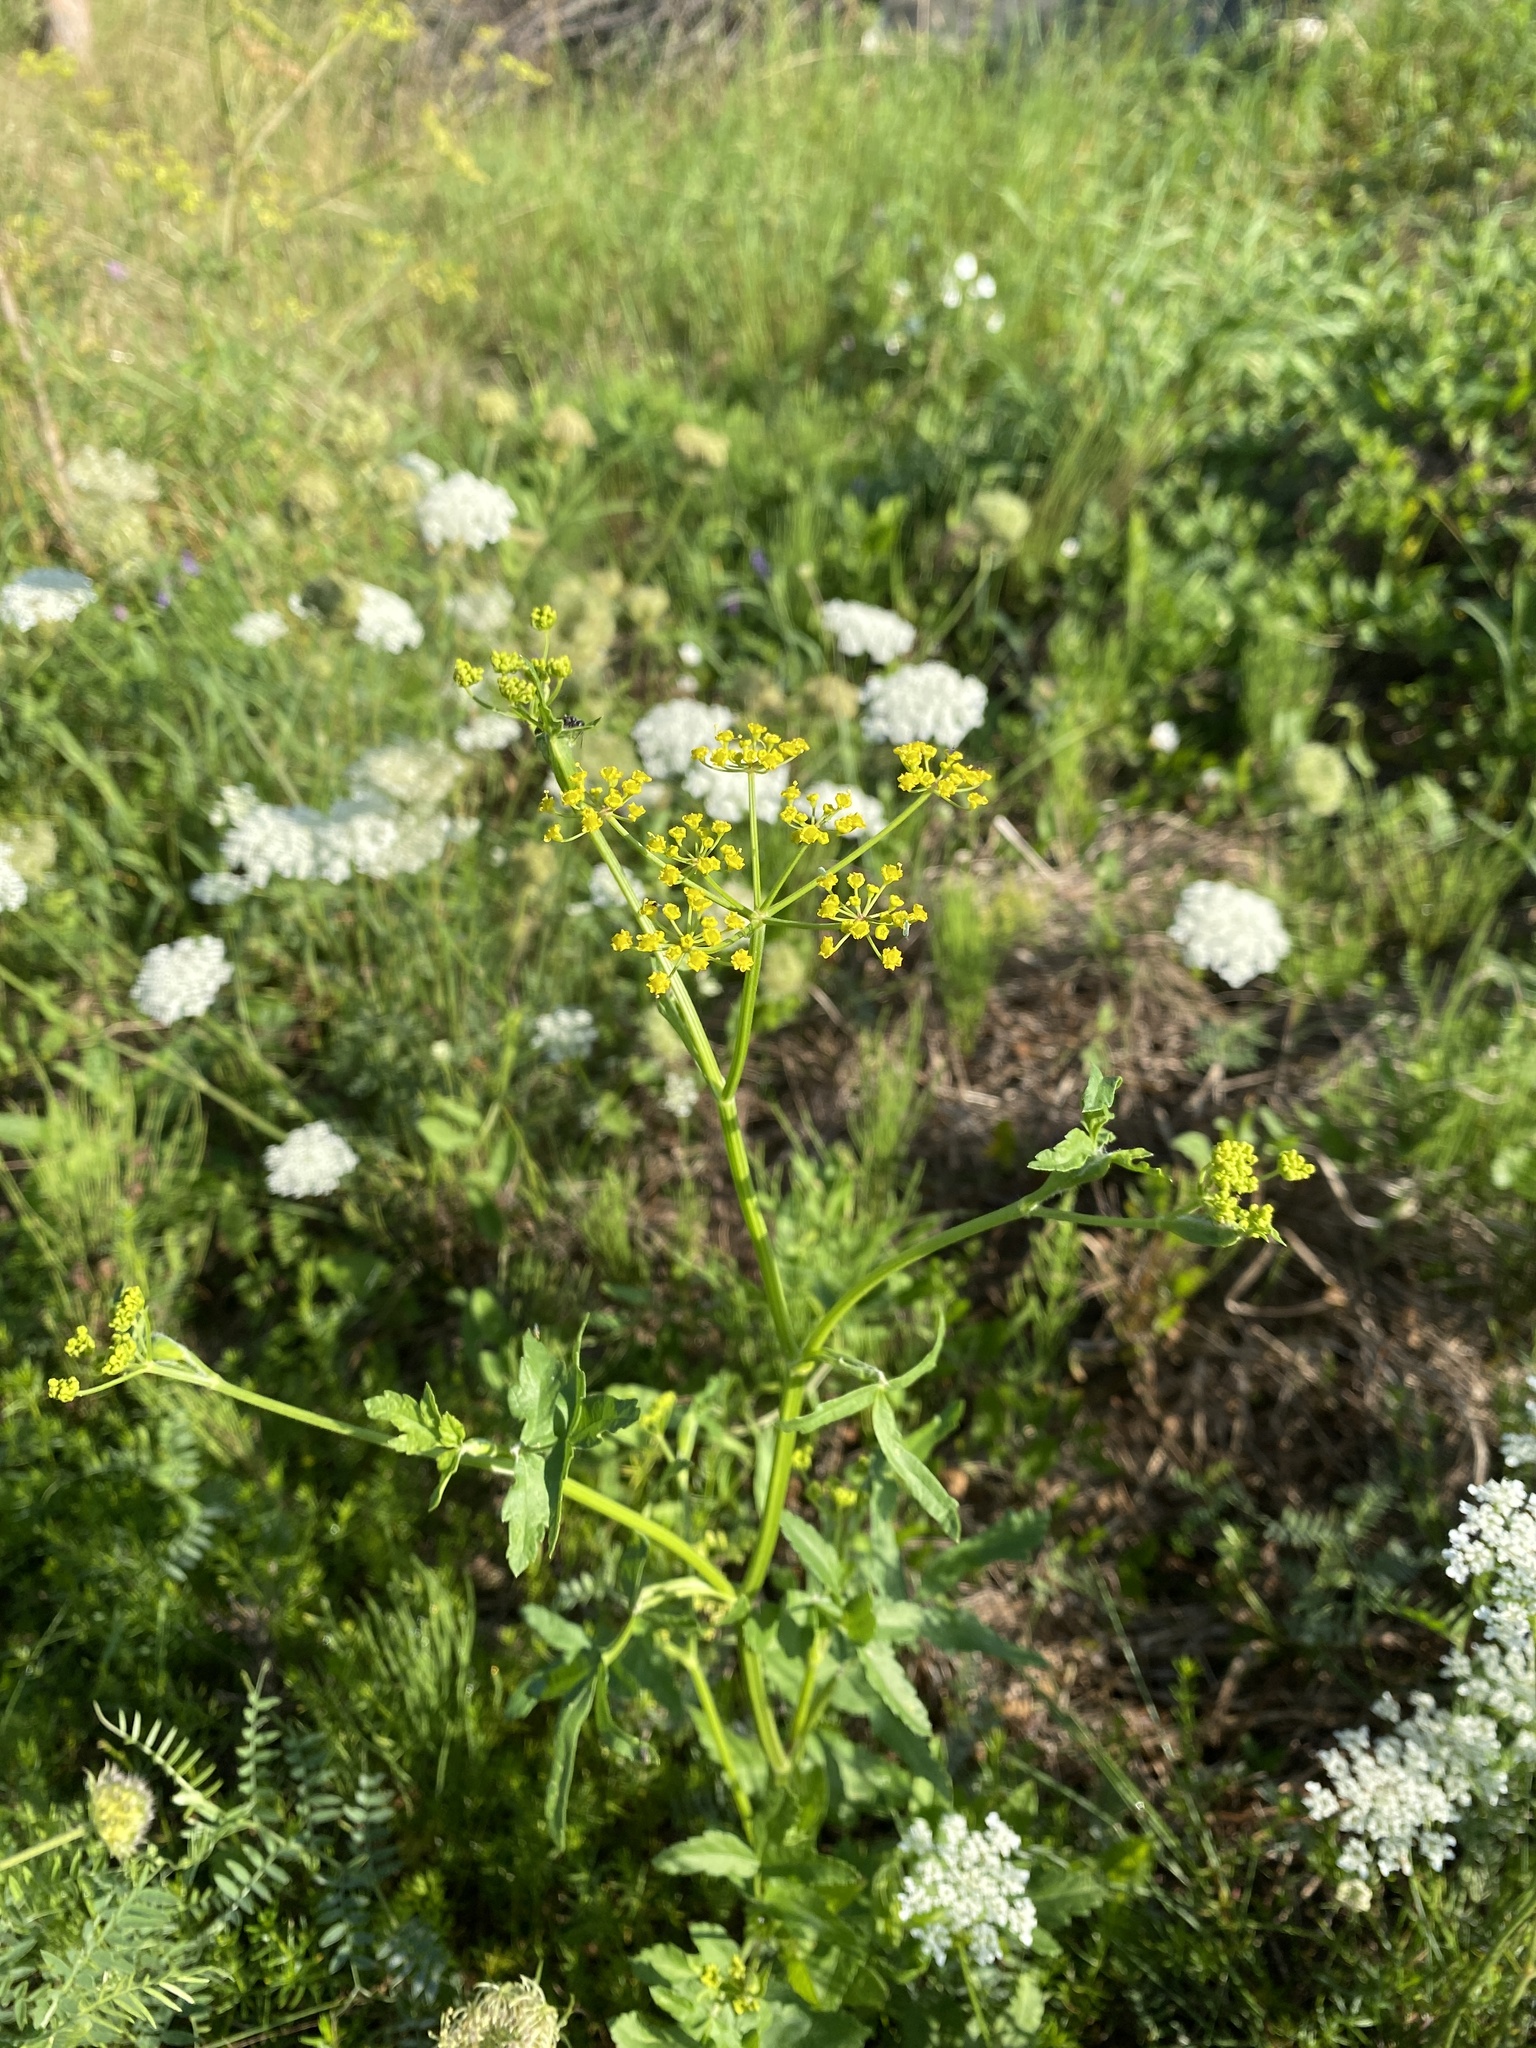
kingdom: Plantae
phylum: Tracheophyta
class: Magnoliopsida
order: Apiales
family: Apiaceae
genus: Pastinaca
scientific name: Pastinaca sativa
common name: Wild parsnip
